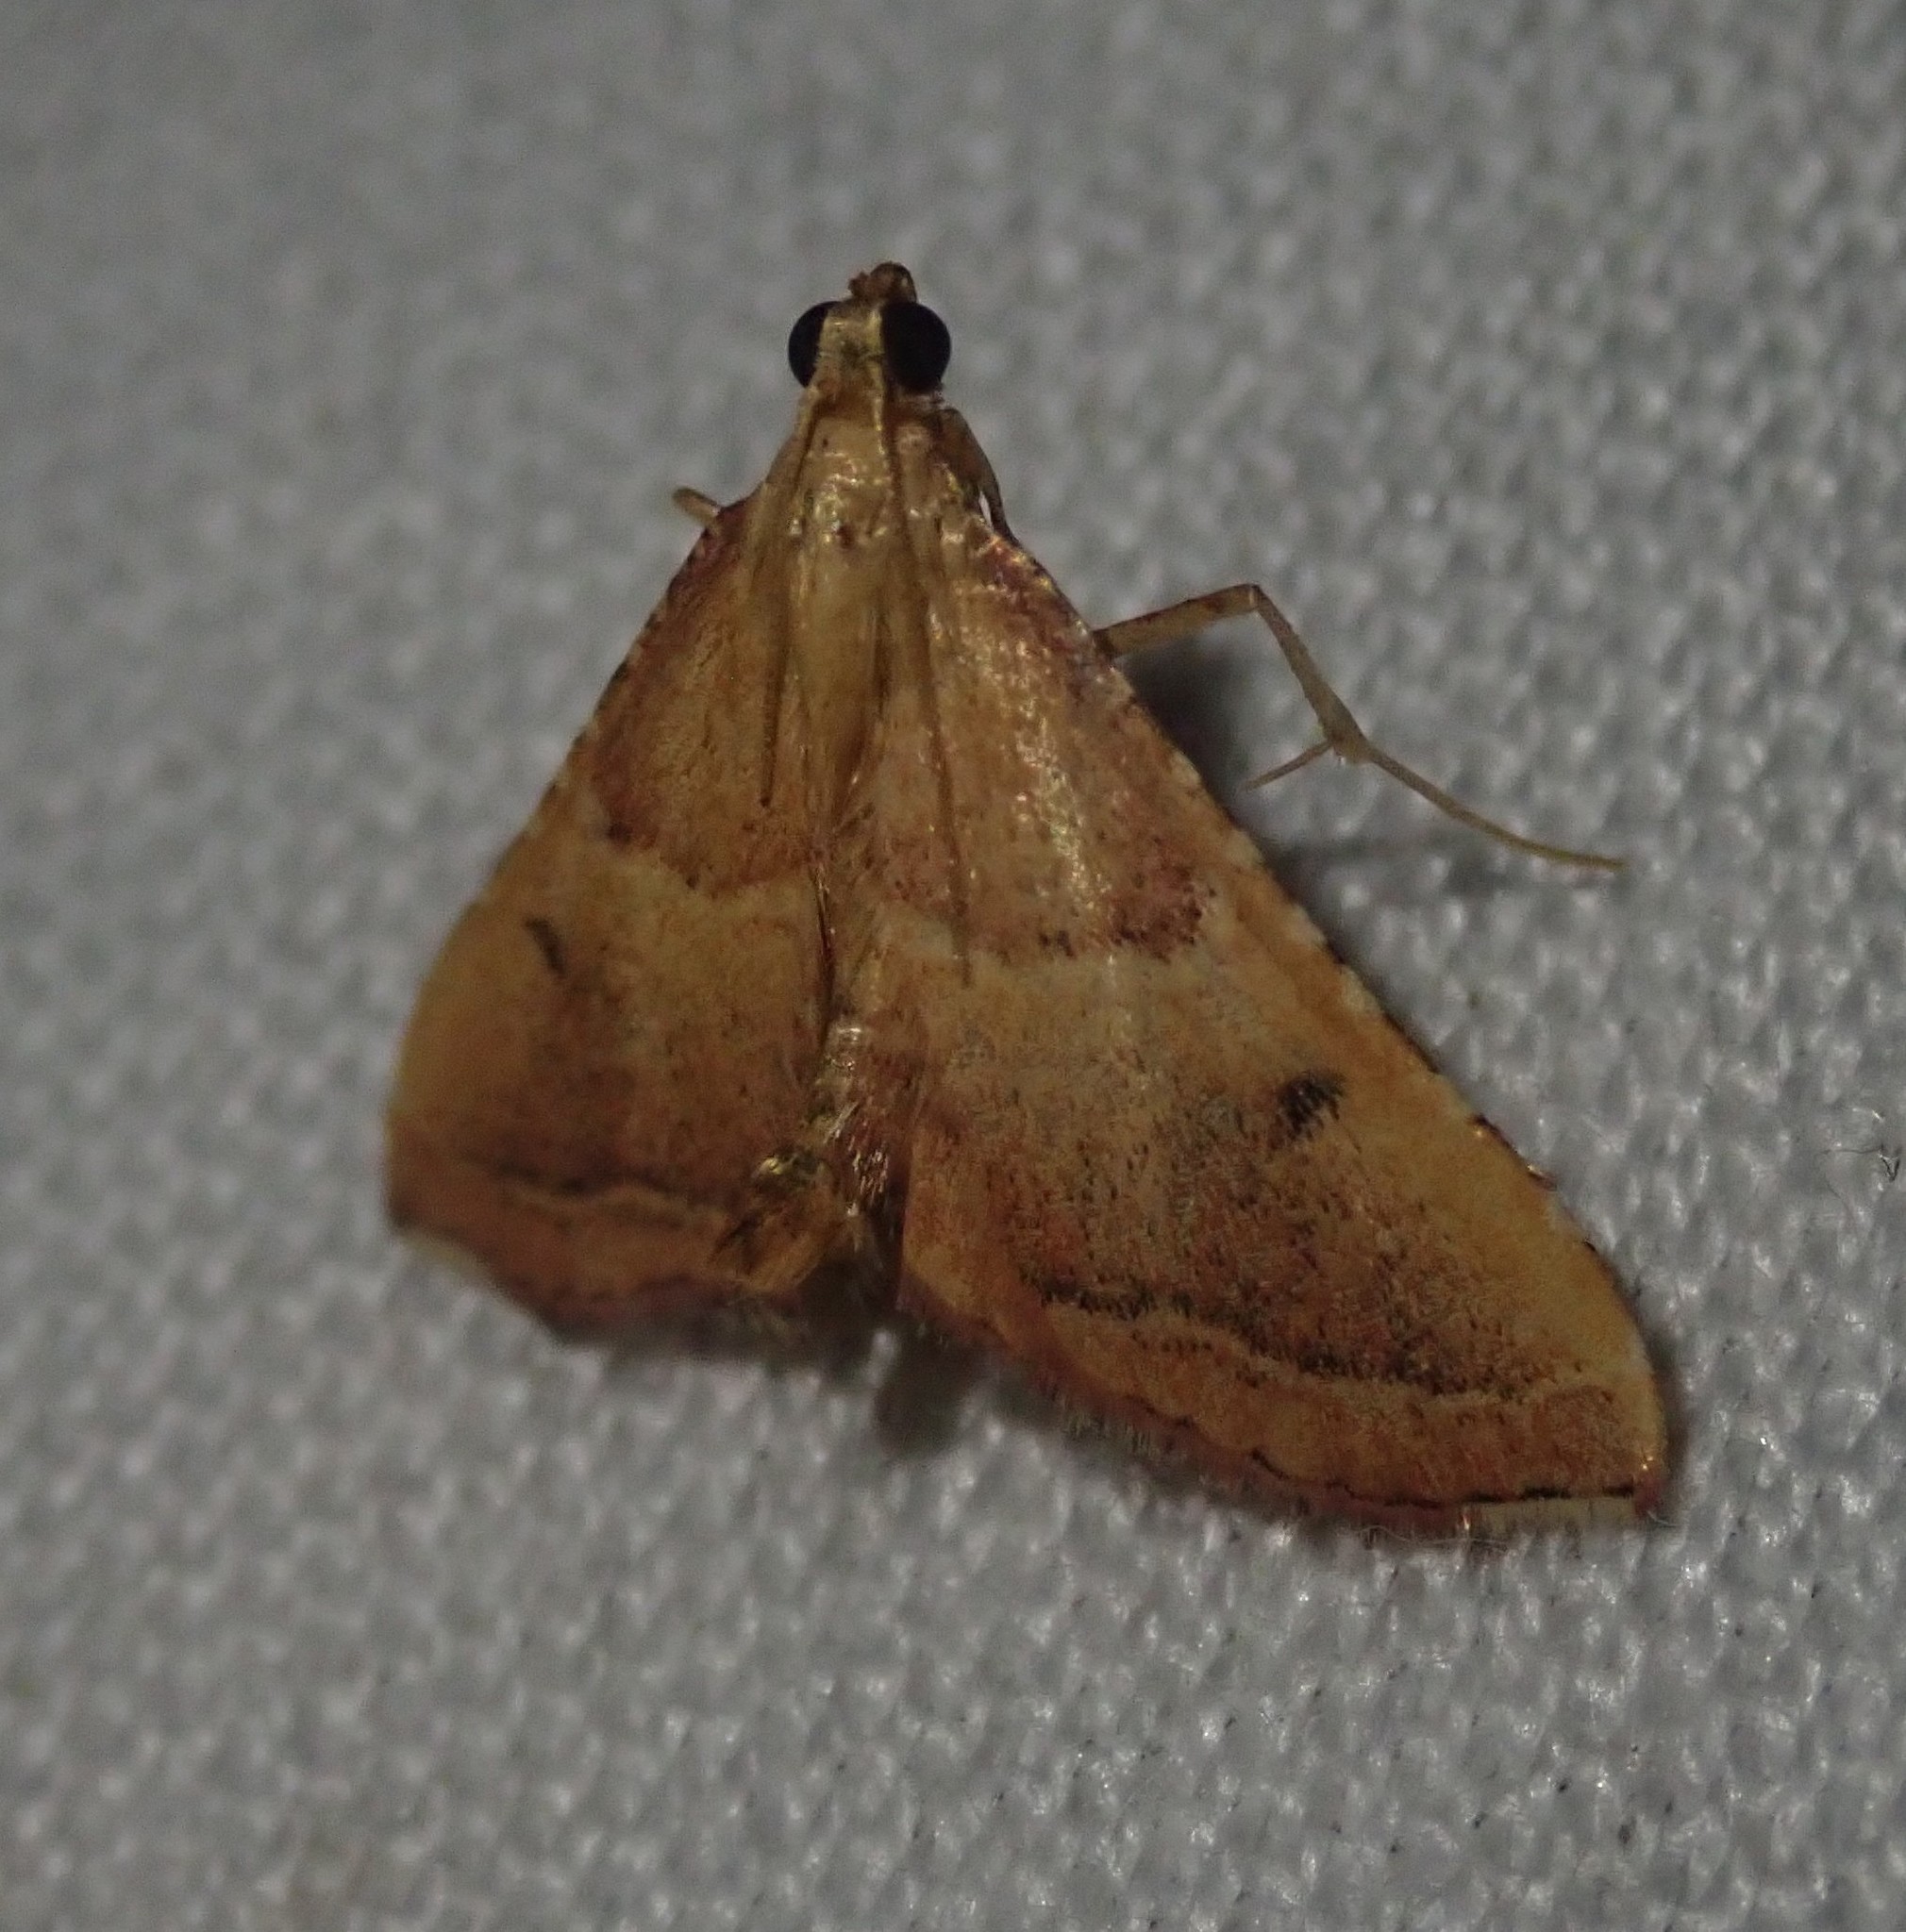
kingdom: Animalia
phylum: Arthropoda
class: Insecta
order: Lepidoptera
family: Pyralidae
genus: Endotricha
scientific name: Endotricha flammealis
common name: Rosy tabby
